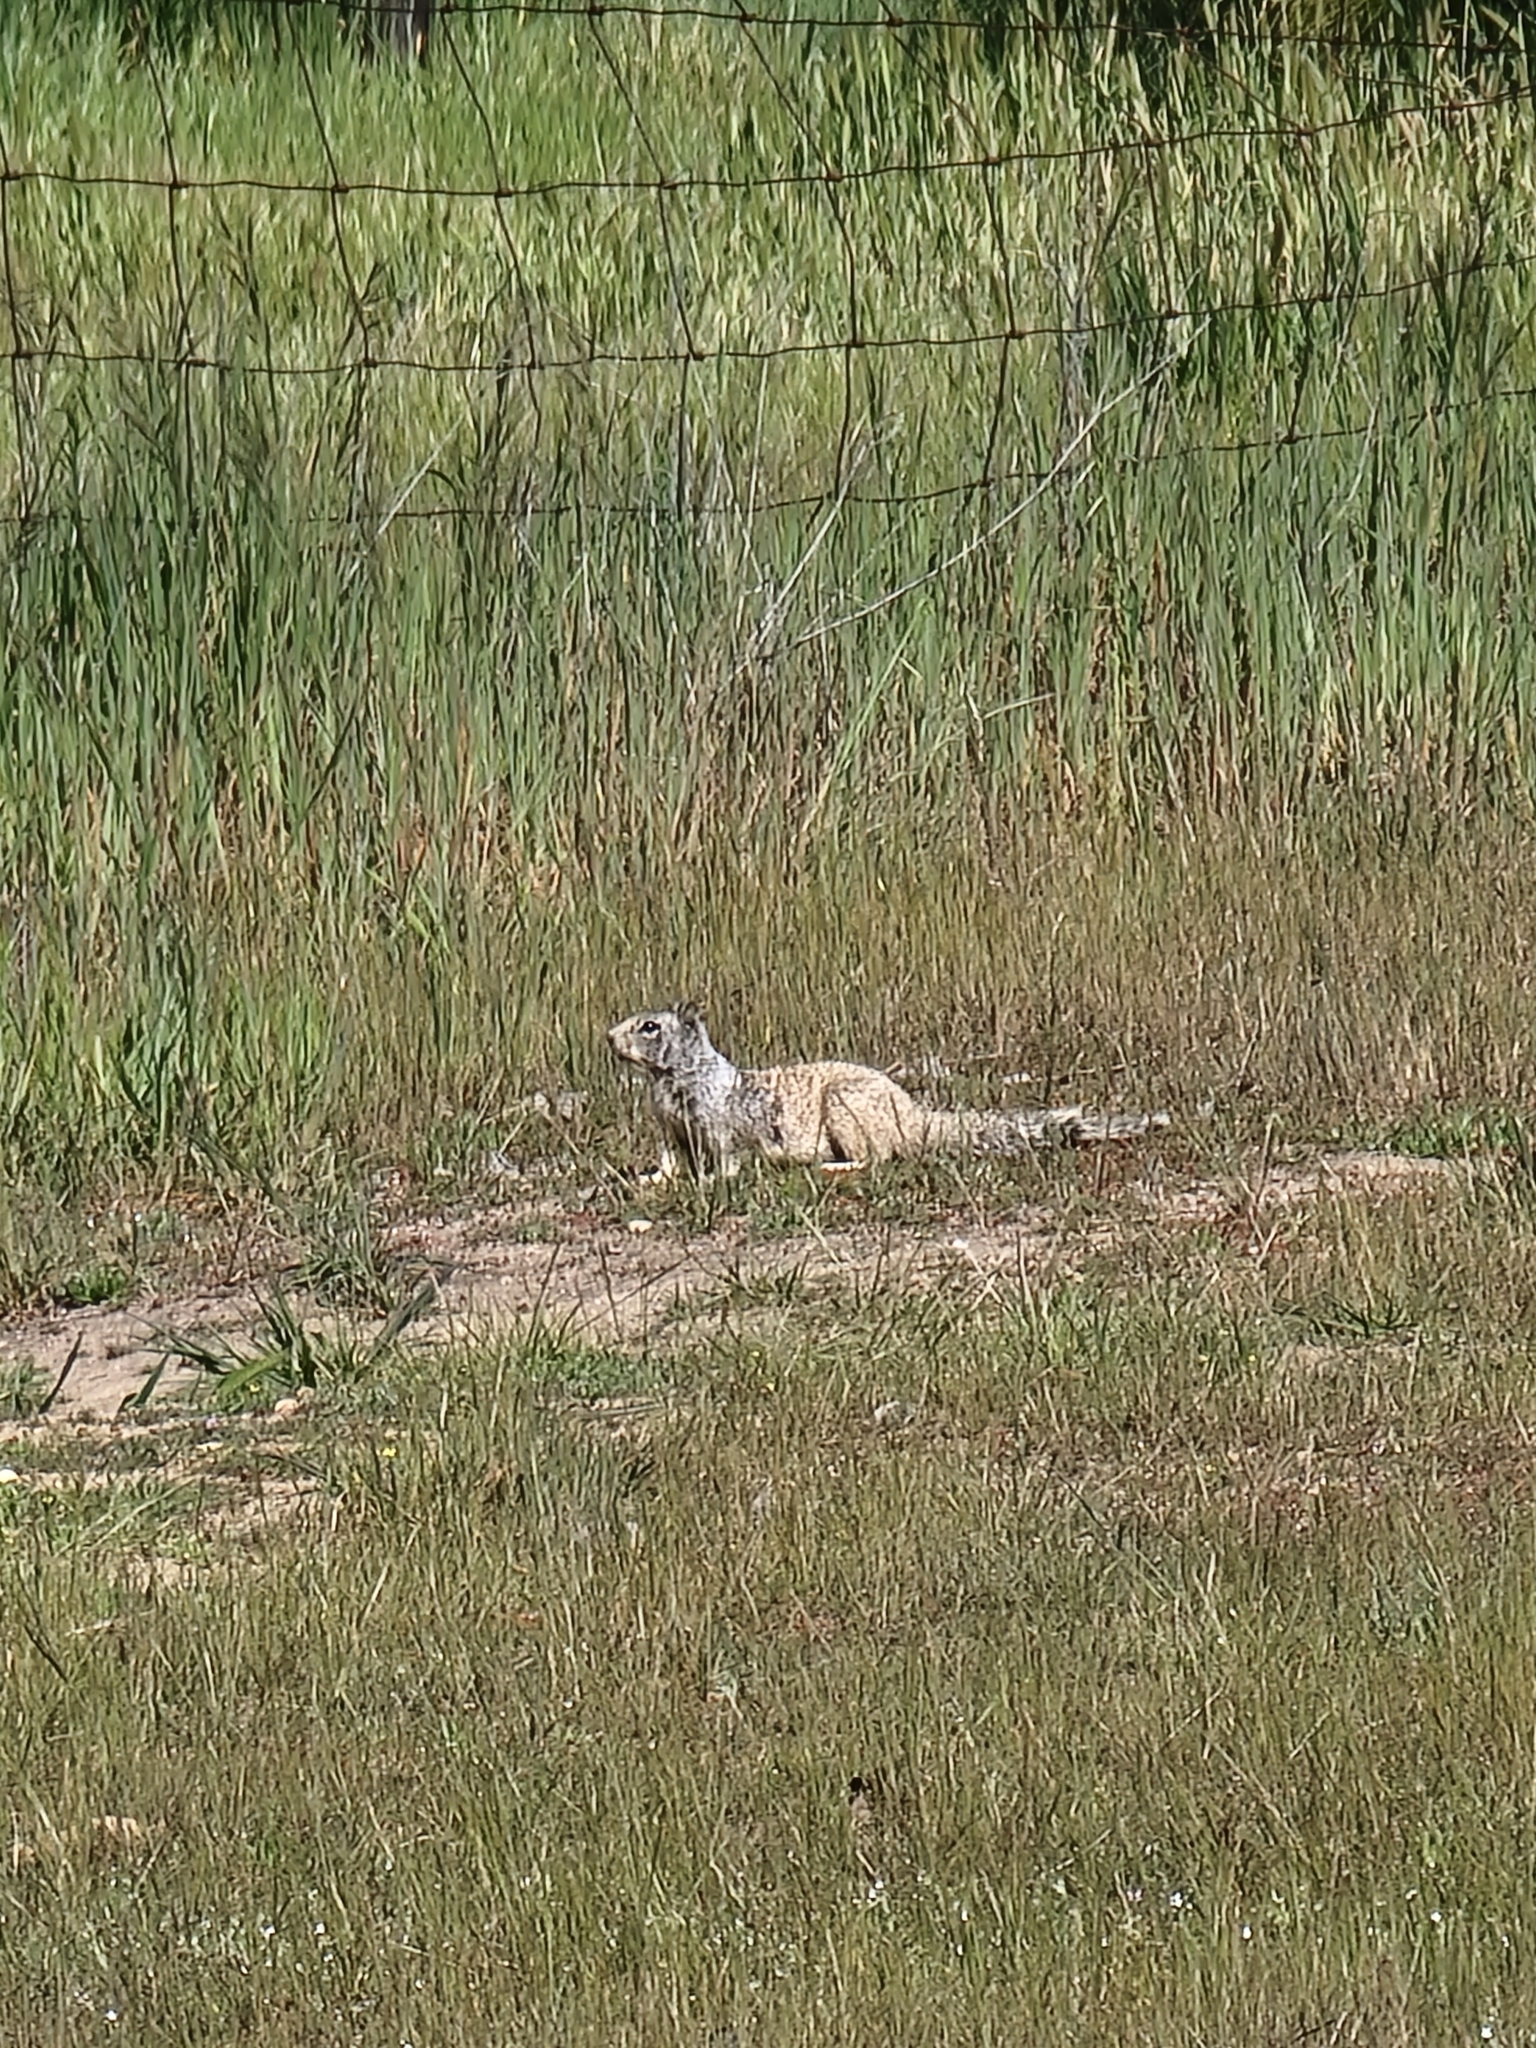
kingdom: Animalia
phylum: Chordata
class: Mammalia
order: Rodentia
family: Sciuridae
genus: Otospermophilus
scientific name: Otospermophilus beecheyi
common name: California ground squirrel
